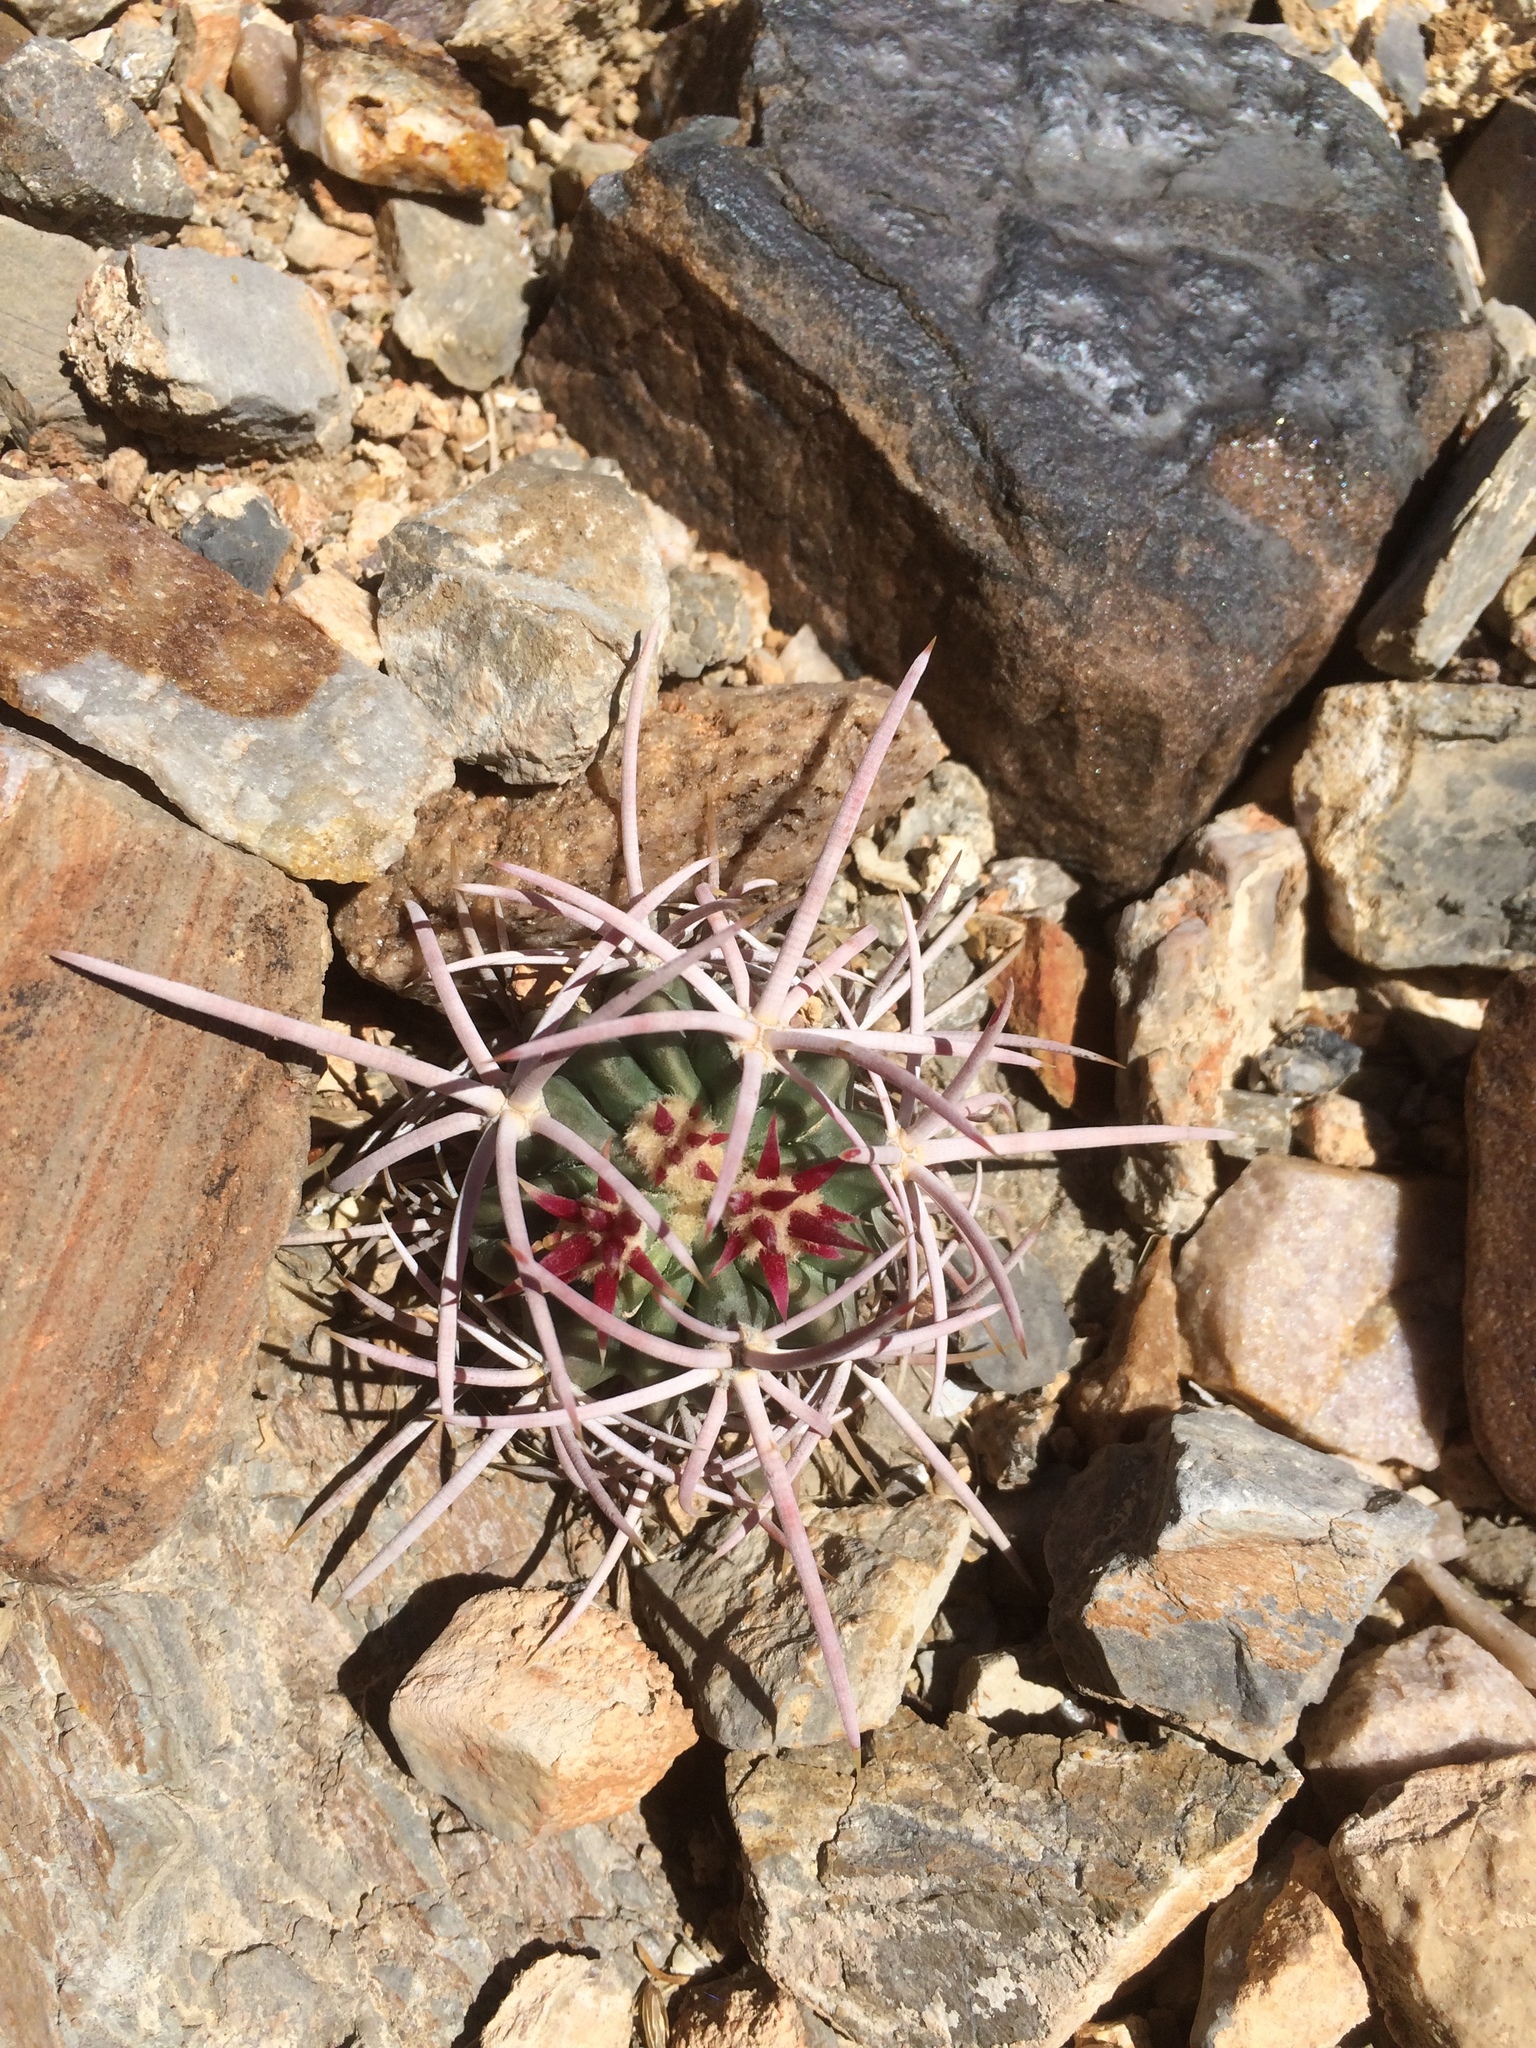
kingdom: Plantae
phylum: Tracheophyta
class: Magnoliopsida
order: Caryophyllales
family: Cactaceae
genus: Echinocactus
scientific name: Echinocactus polycephalus
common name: Cottontop cactus
